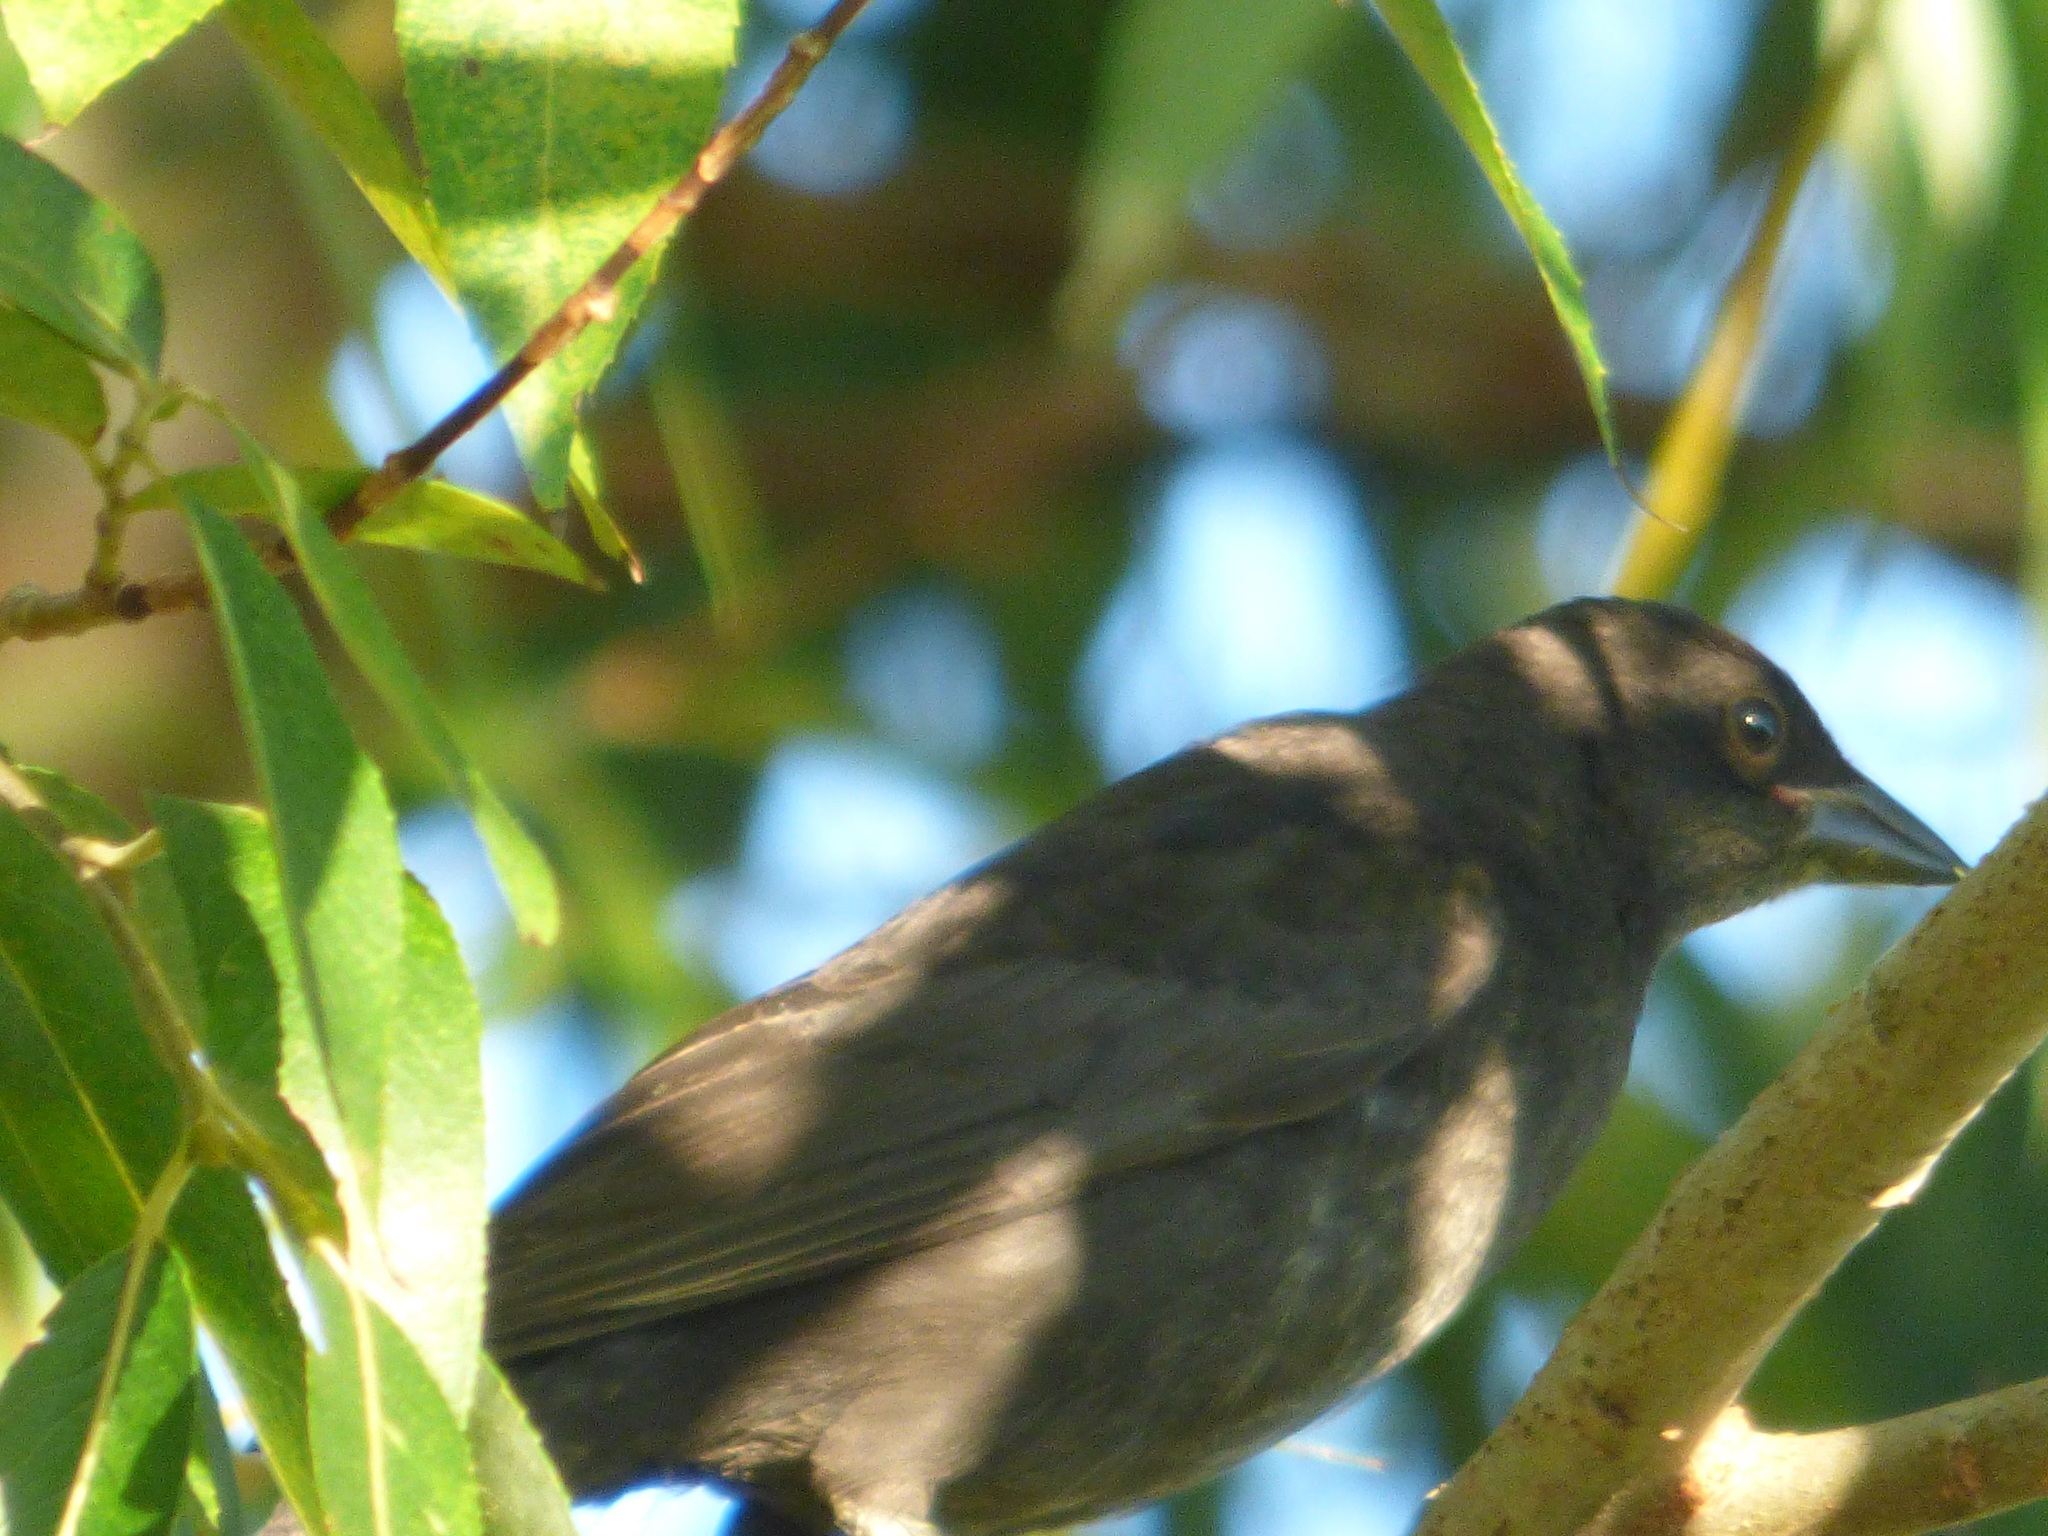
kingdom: Animalia
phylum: Chordata
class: Aves
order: Passeriformes
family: Icteridae
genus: Molothrus
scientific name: Molothrus bonariensis
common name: Shiny cowbird
